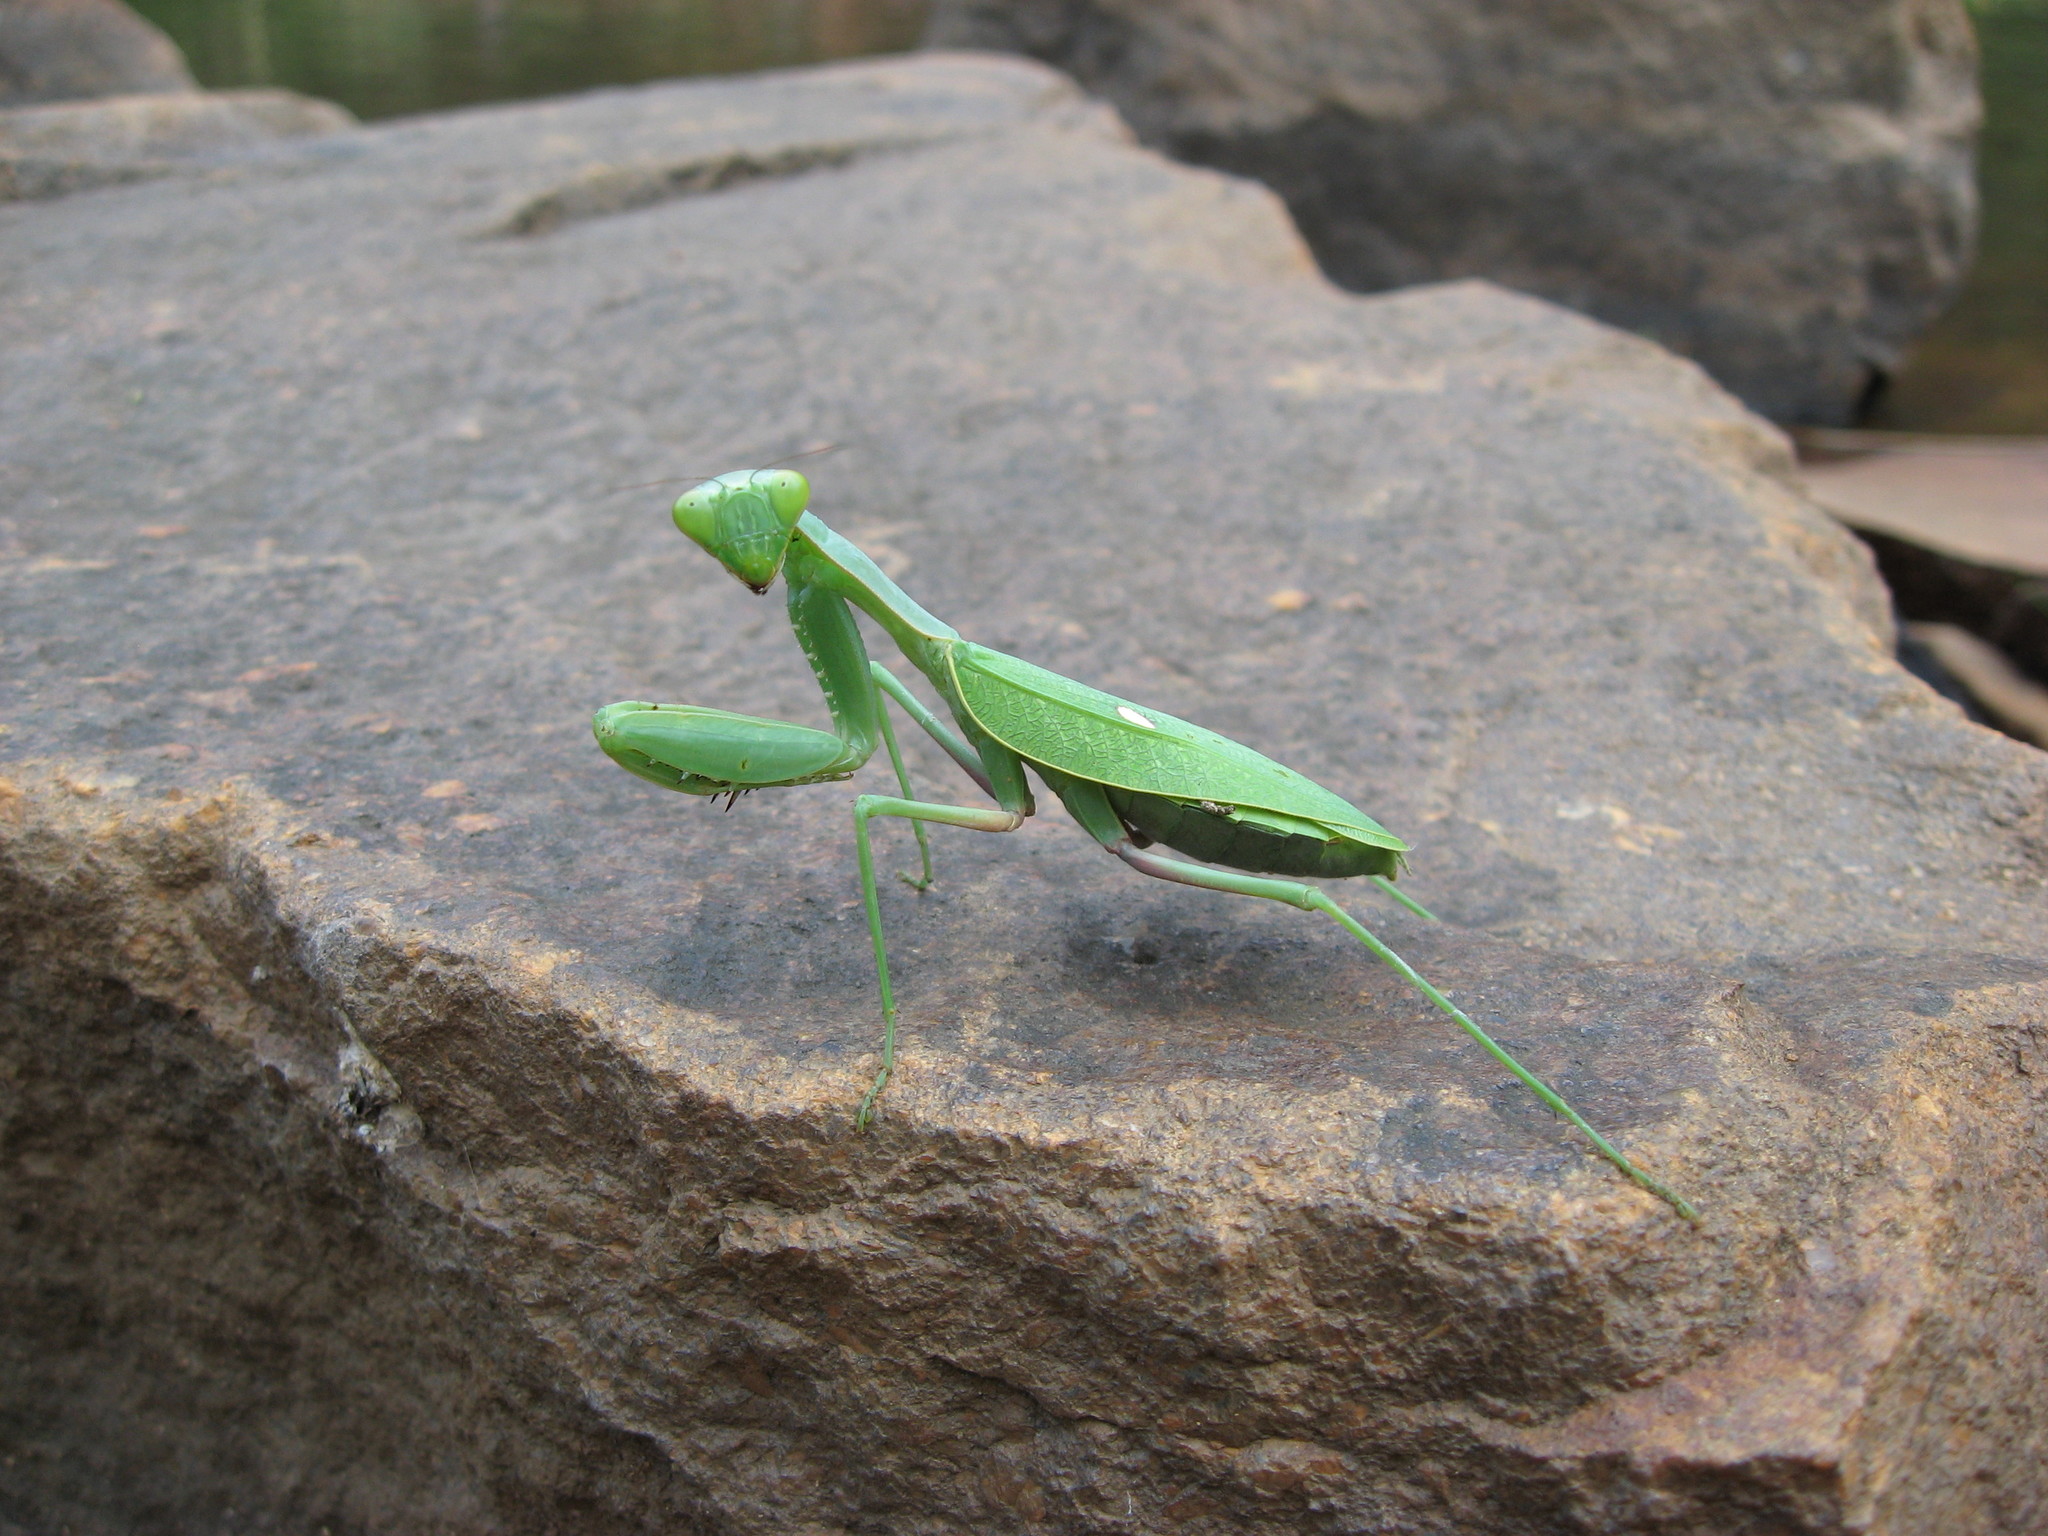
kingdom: Animalia
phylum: Arthropoda
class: Insecta
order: Mantodea
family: Mantidae
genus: Sphodromantis
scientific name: Sphodromantis gastrica
